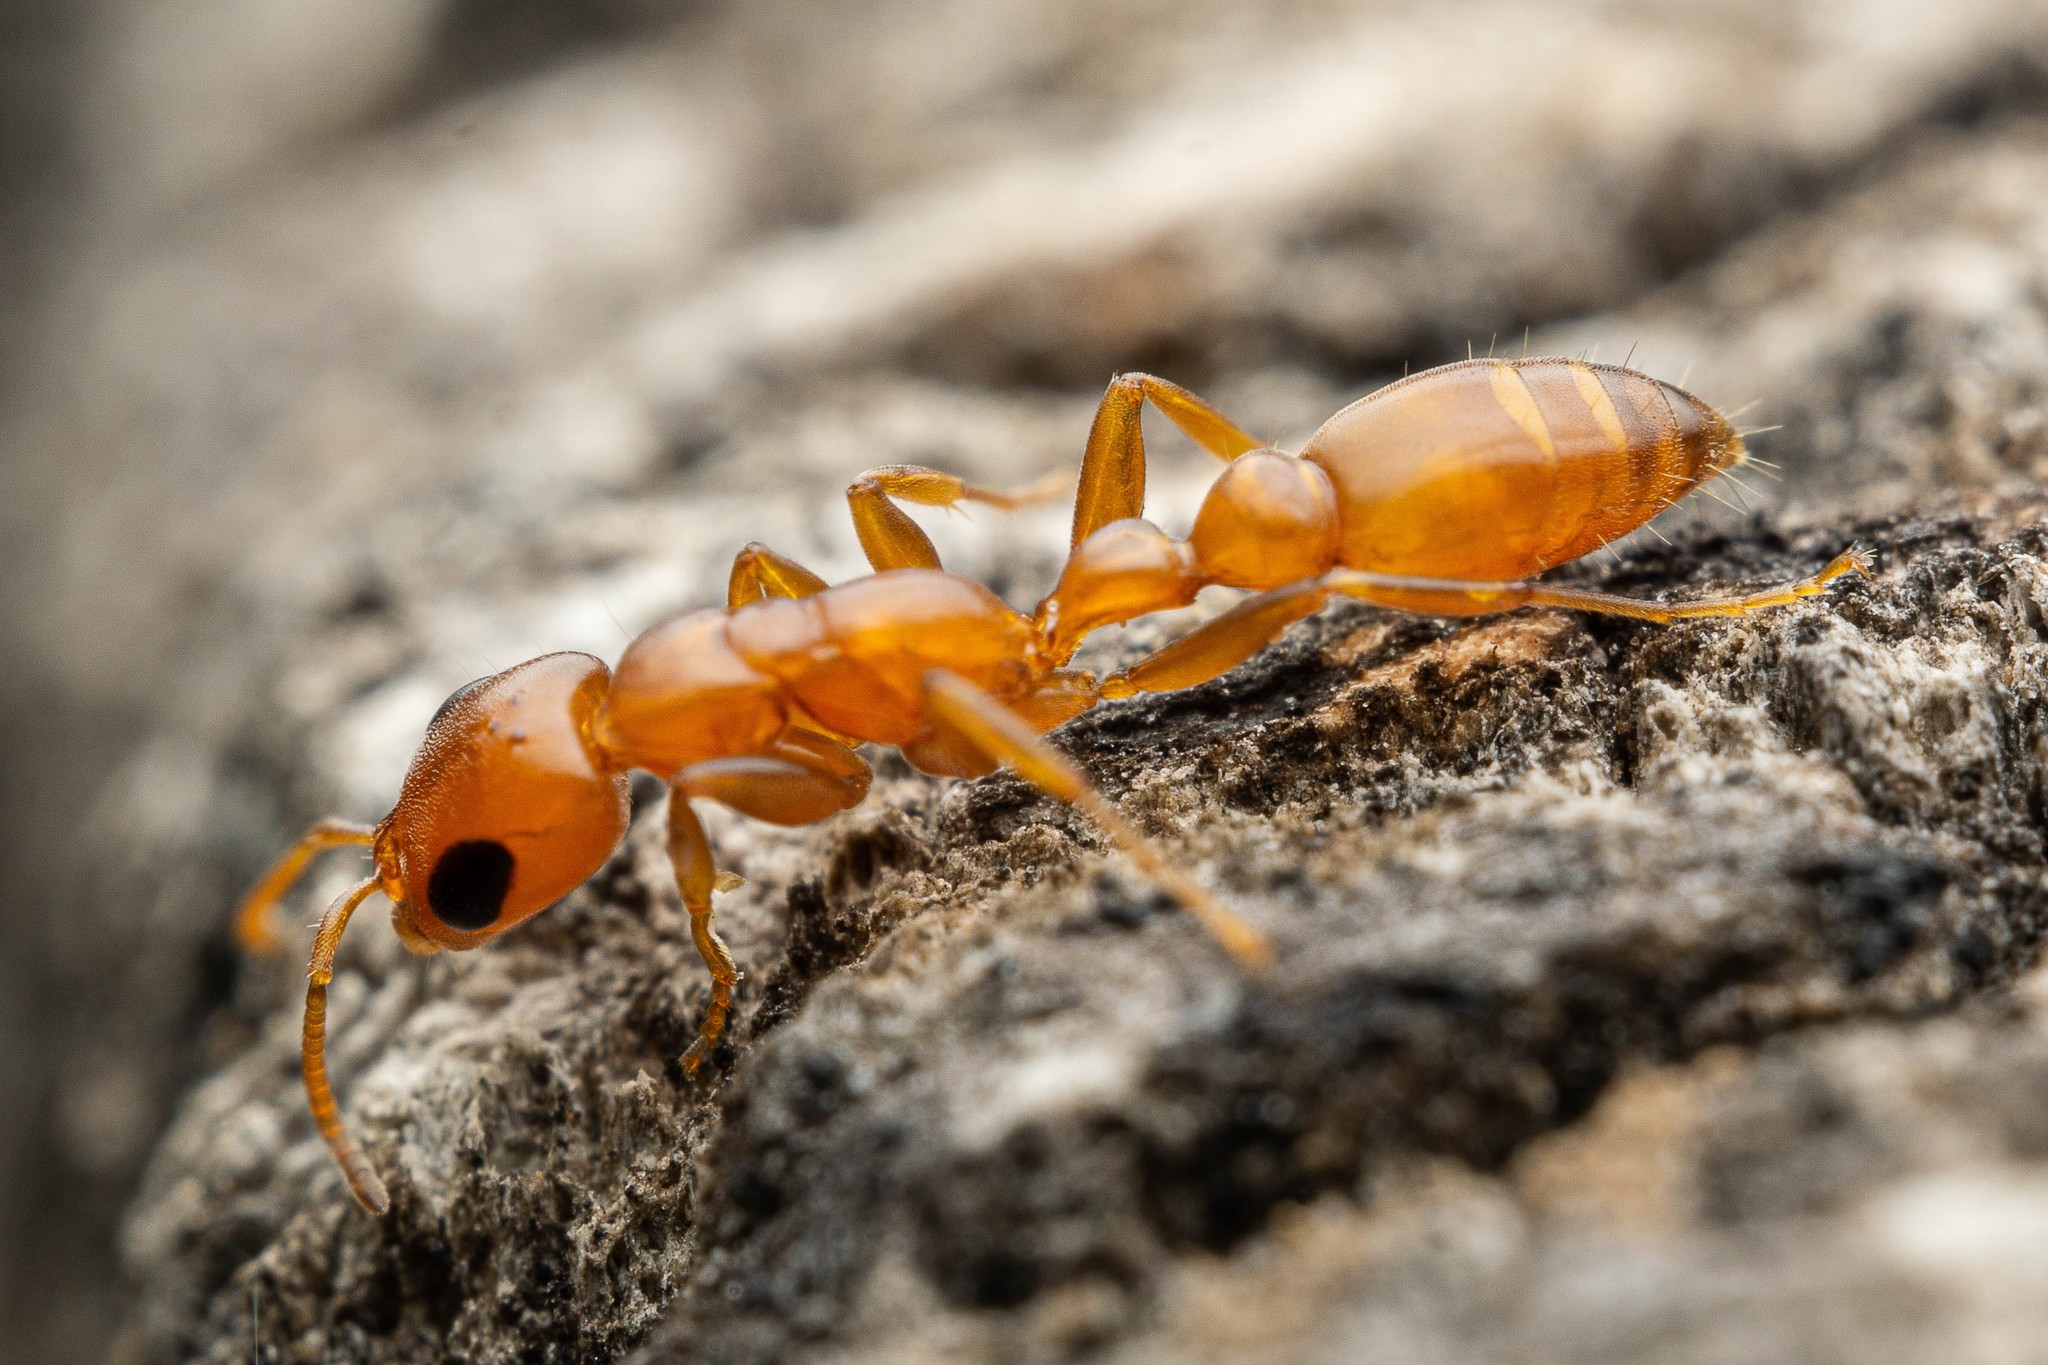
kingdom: Animalia
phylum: Arthropoda
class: Insecta
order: Hymenoptera
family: Formicidae
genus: Pseudomyrmex
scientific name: Pseudomyrmex apache
